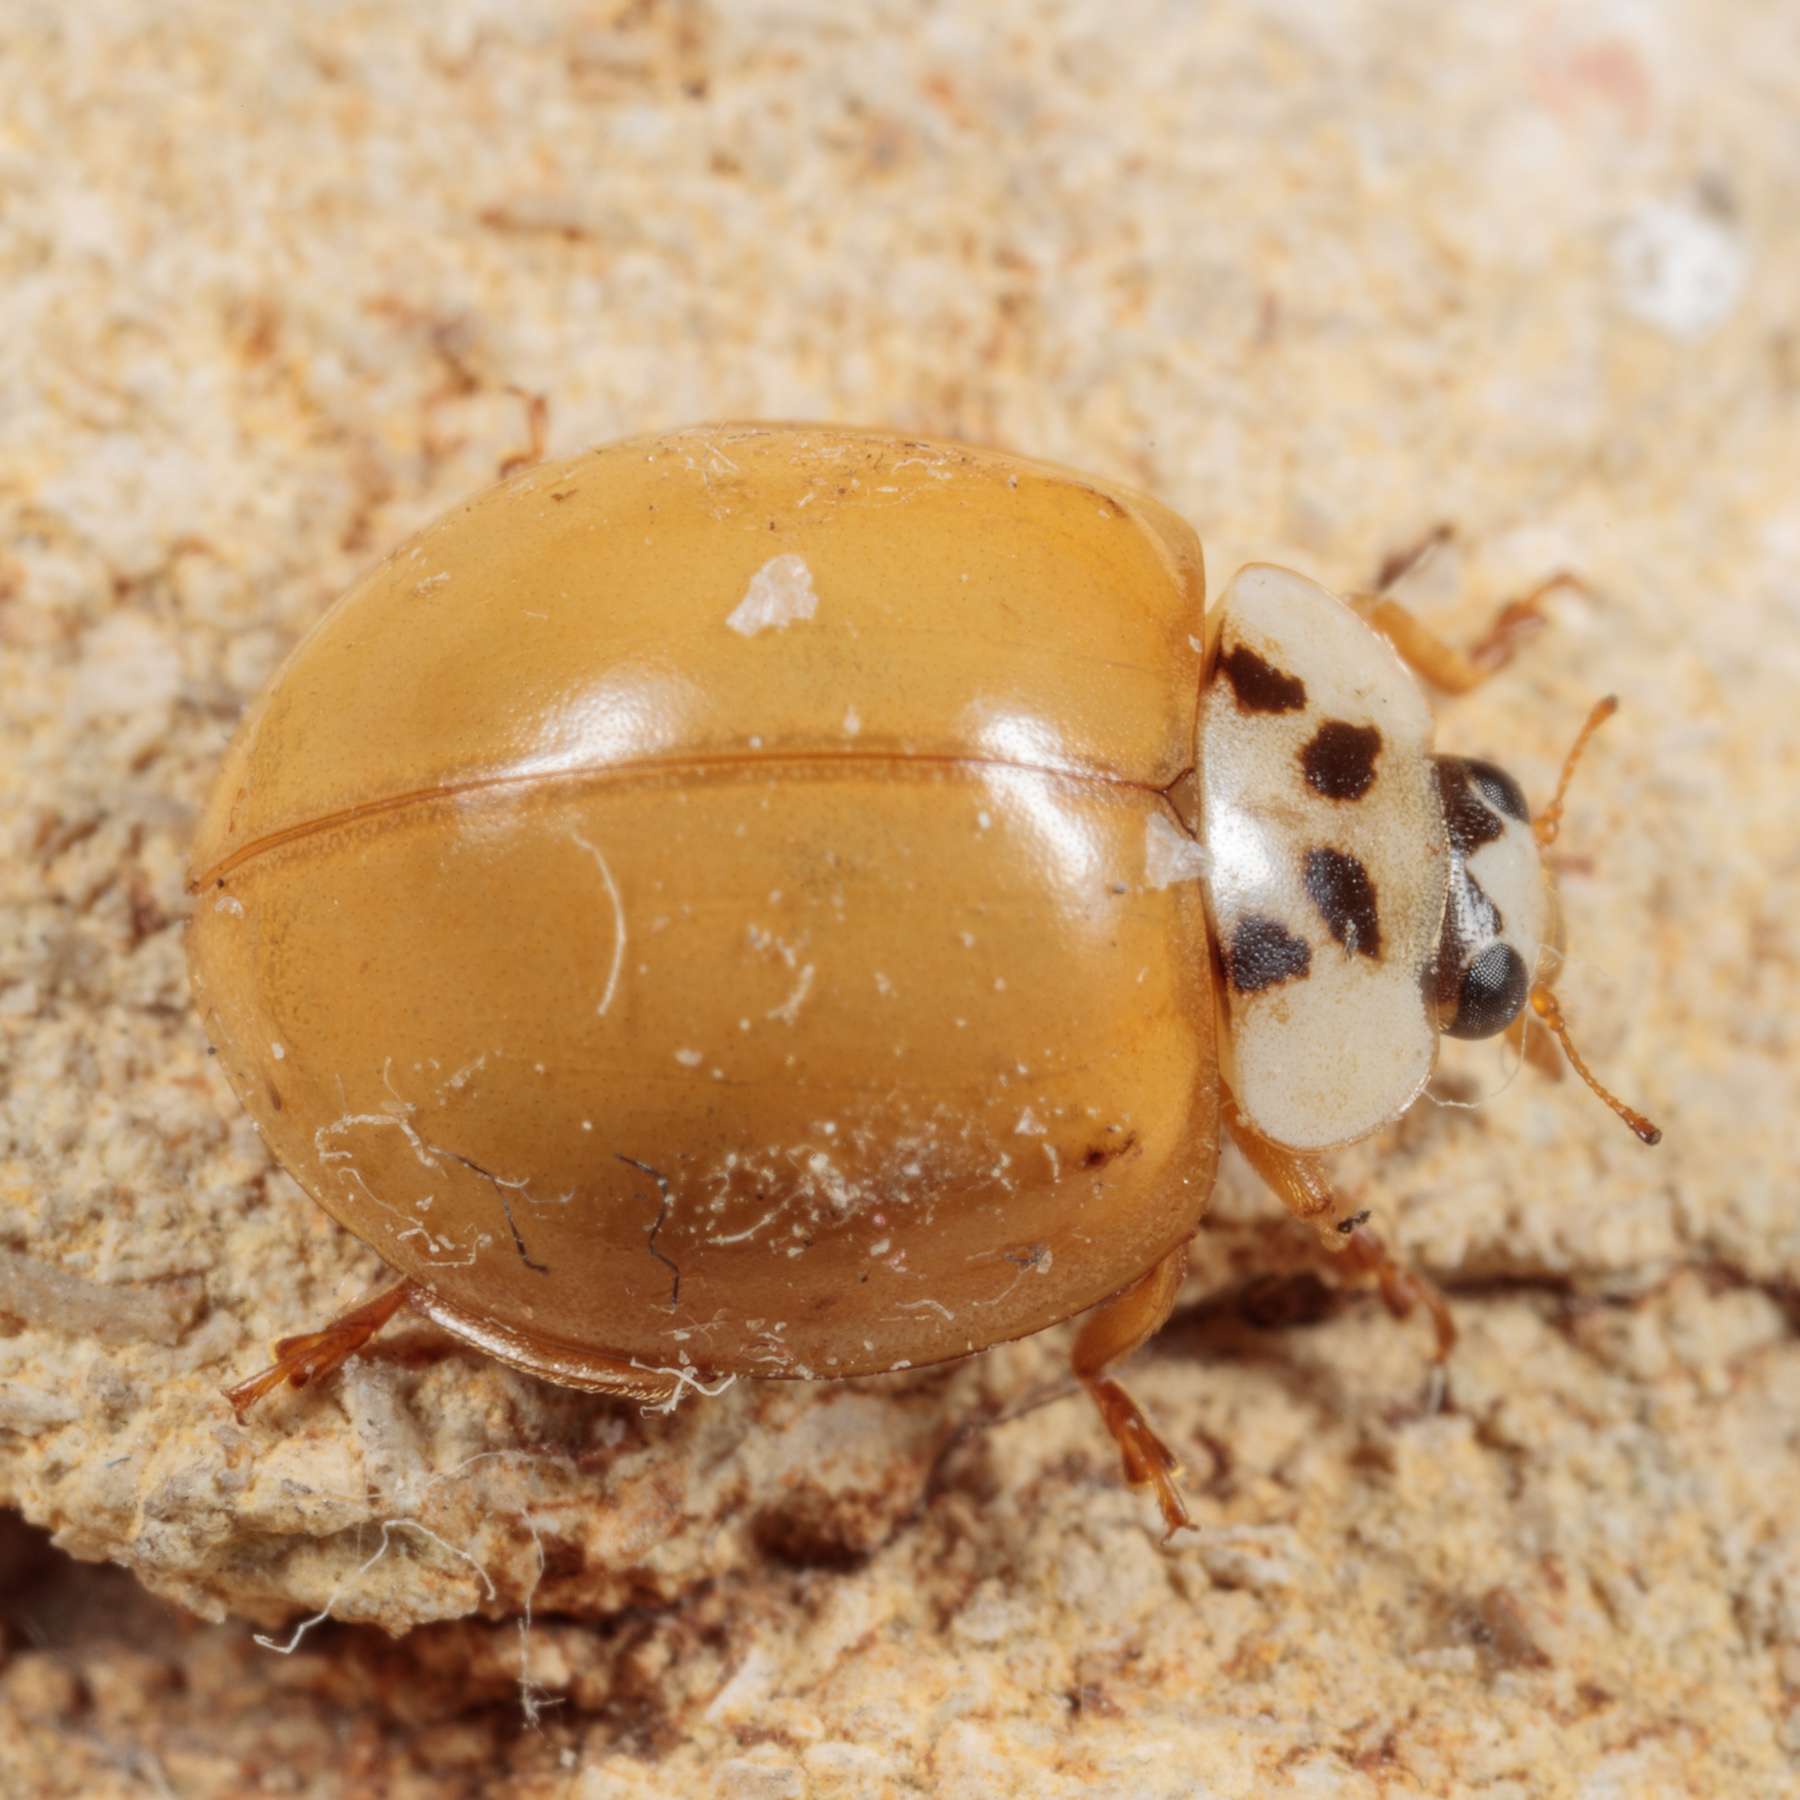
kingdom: Animalia
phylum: Arthropoda
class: Insecta
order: Coleoptera
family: Coccinellidae
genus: Harmonia
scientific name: Harmonia axyridis
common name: Harlequin ladybird
